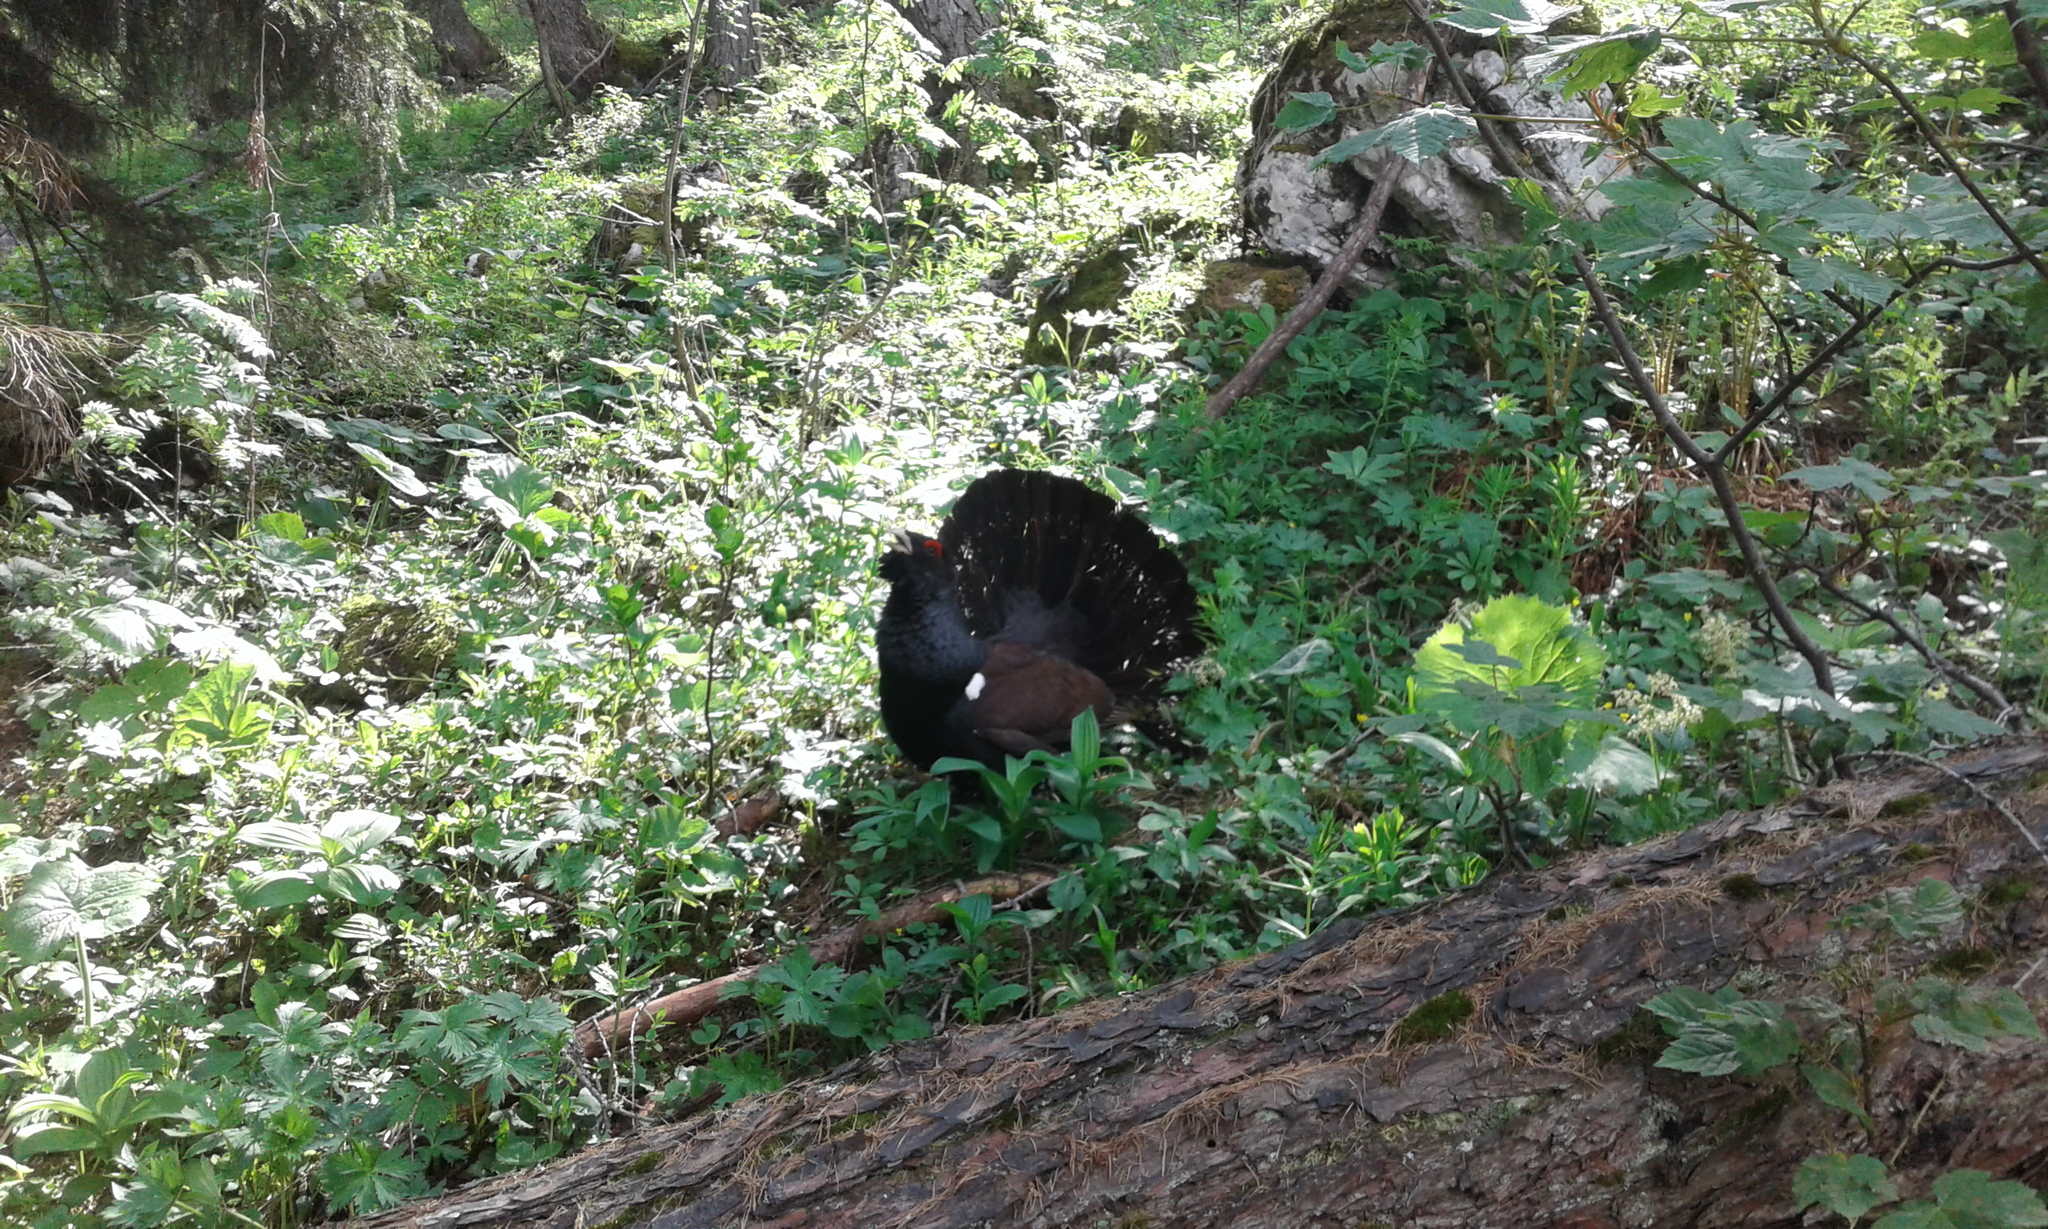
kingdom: Animalia
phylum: Chordata
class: Aves
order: Galliformes
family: Phasianidae
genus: Tetrao
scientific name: Tetrao urogallus
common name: Western capercaillie
